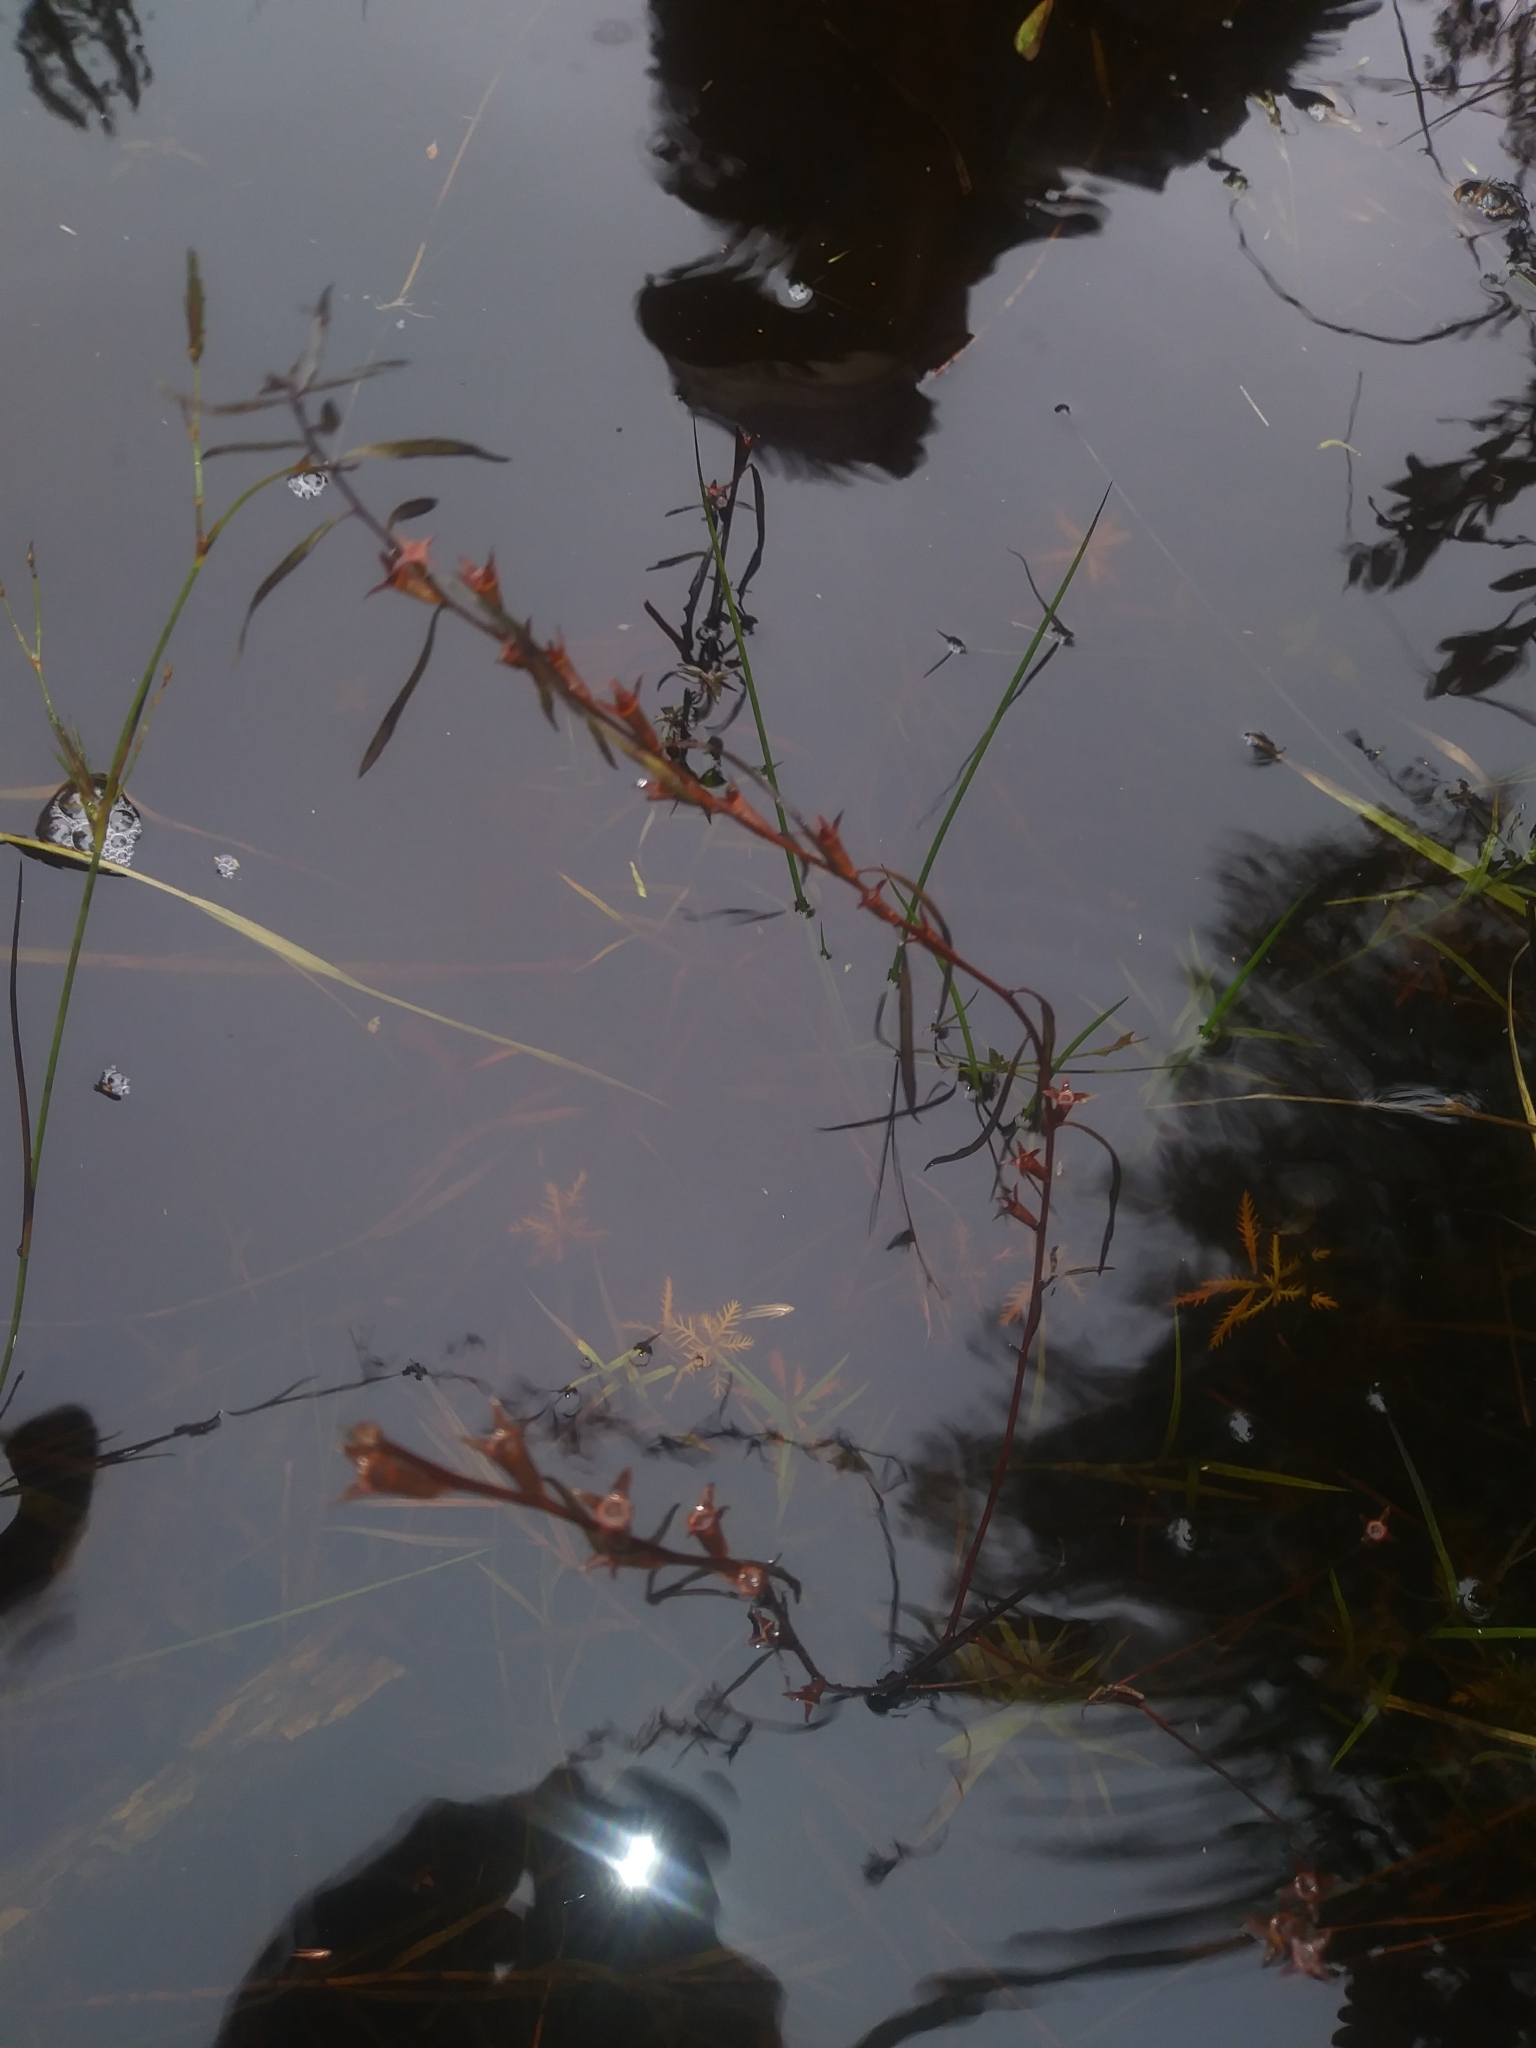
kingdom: Plantae
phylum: Tracheophyta
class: Magnoliopsida
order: Myrtales
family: Onagraceae
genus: Ludwigia
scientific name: Ludwigia linearis
